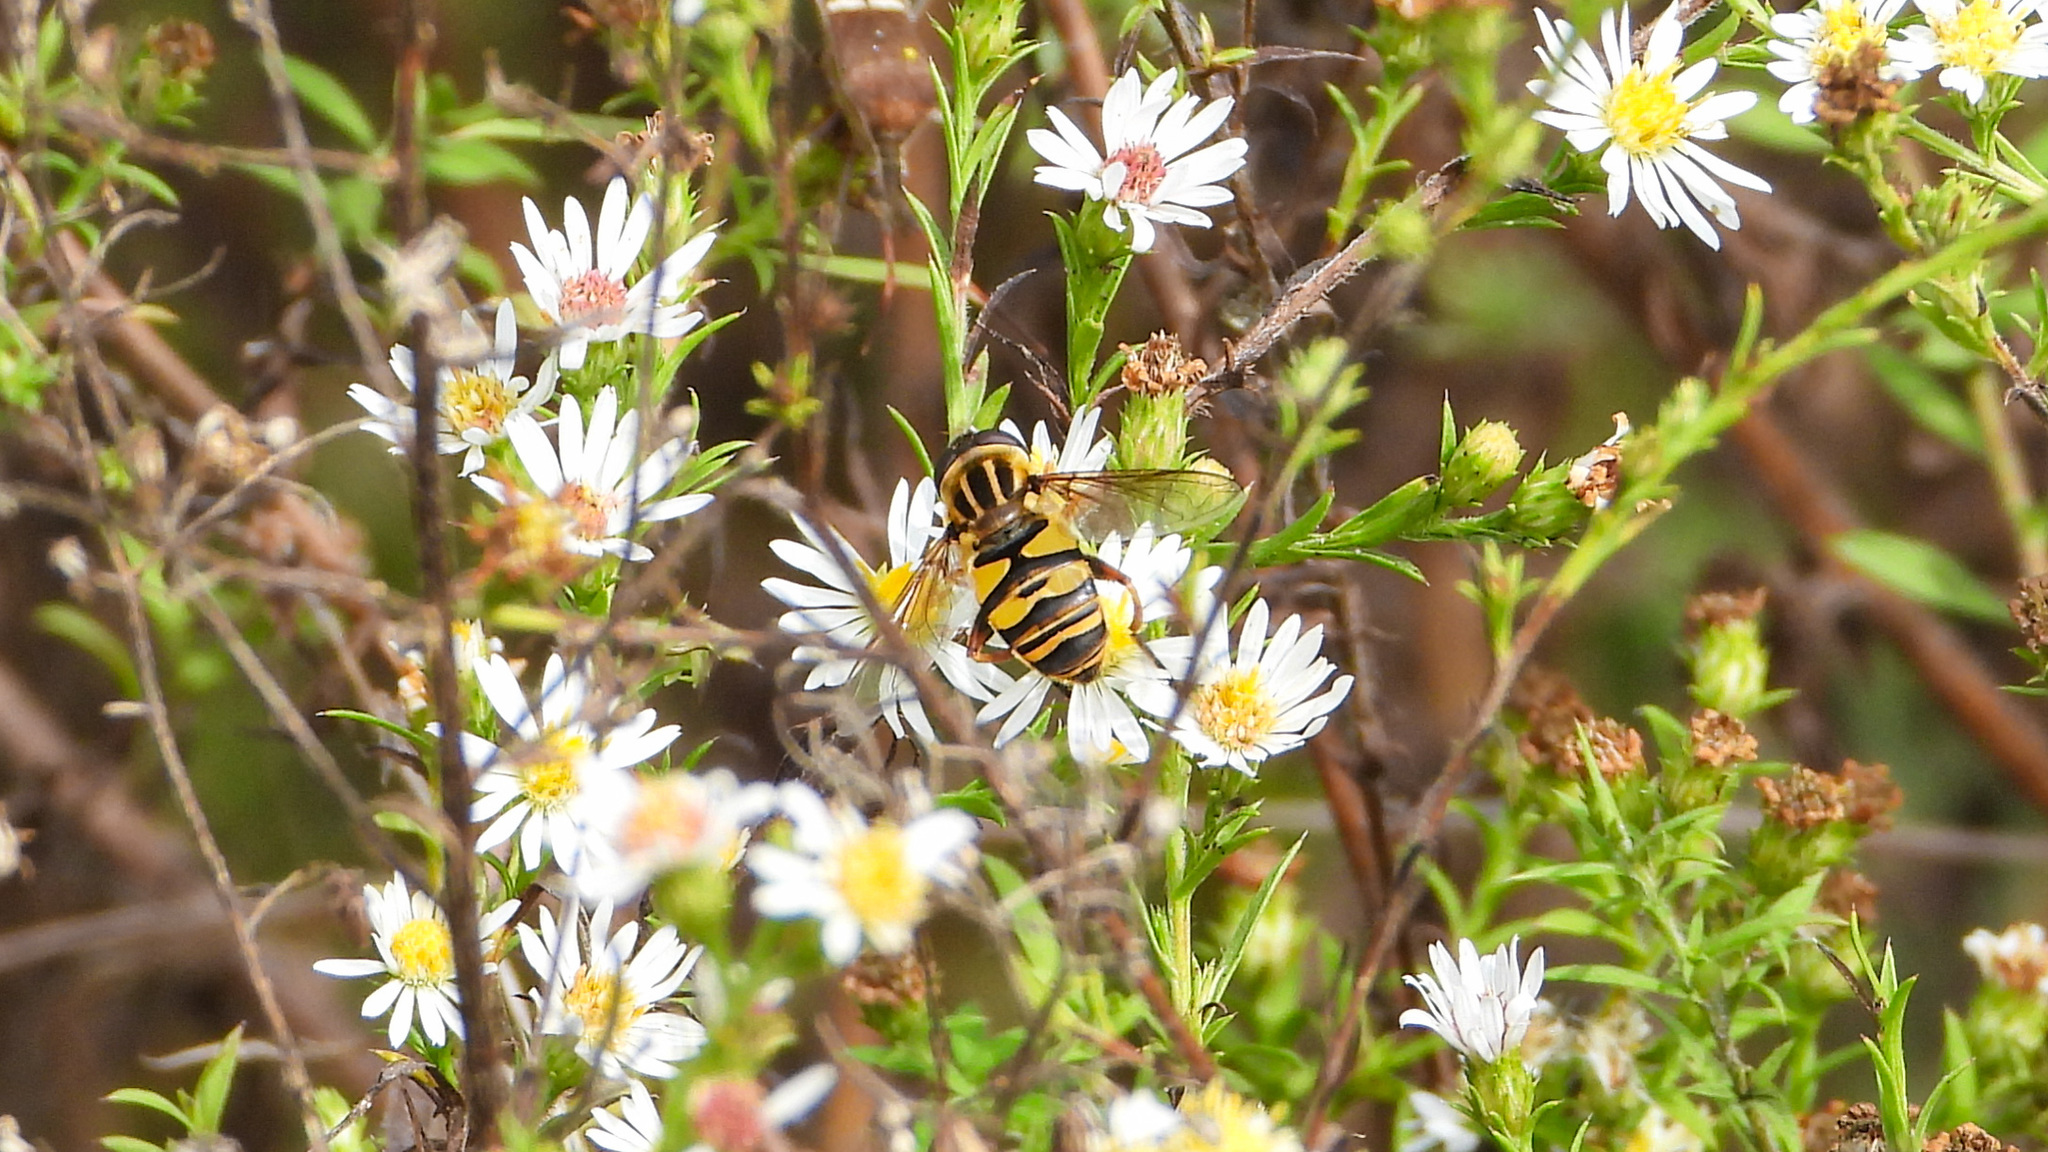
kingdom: Animalia
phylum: Arthropoda
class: Insecta
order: Diptera
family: Syrphidae
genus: Helophilus
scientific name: Helophilus fasciatus
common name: Narrow-headed marsh fly
